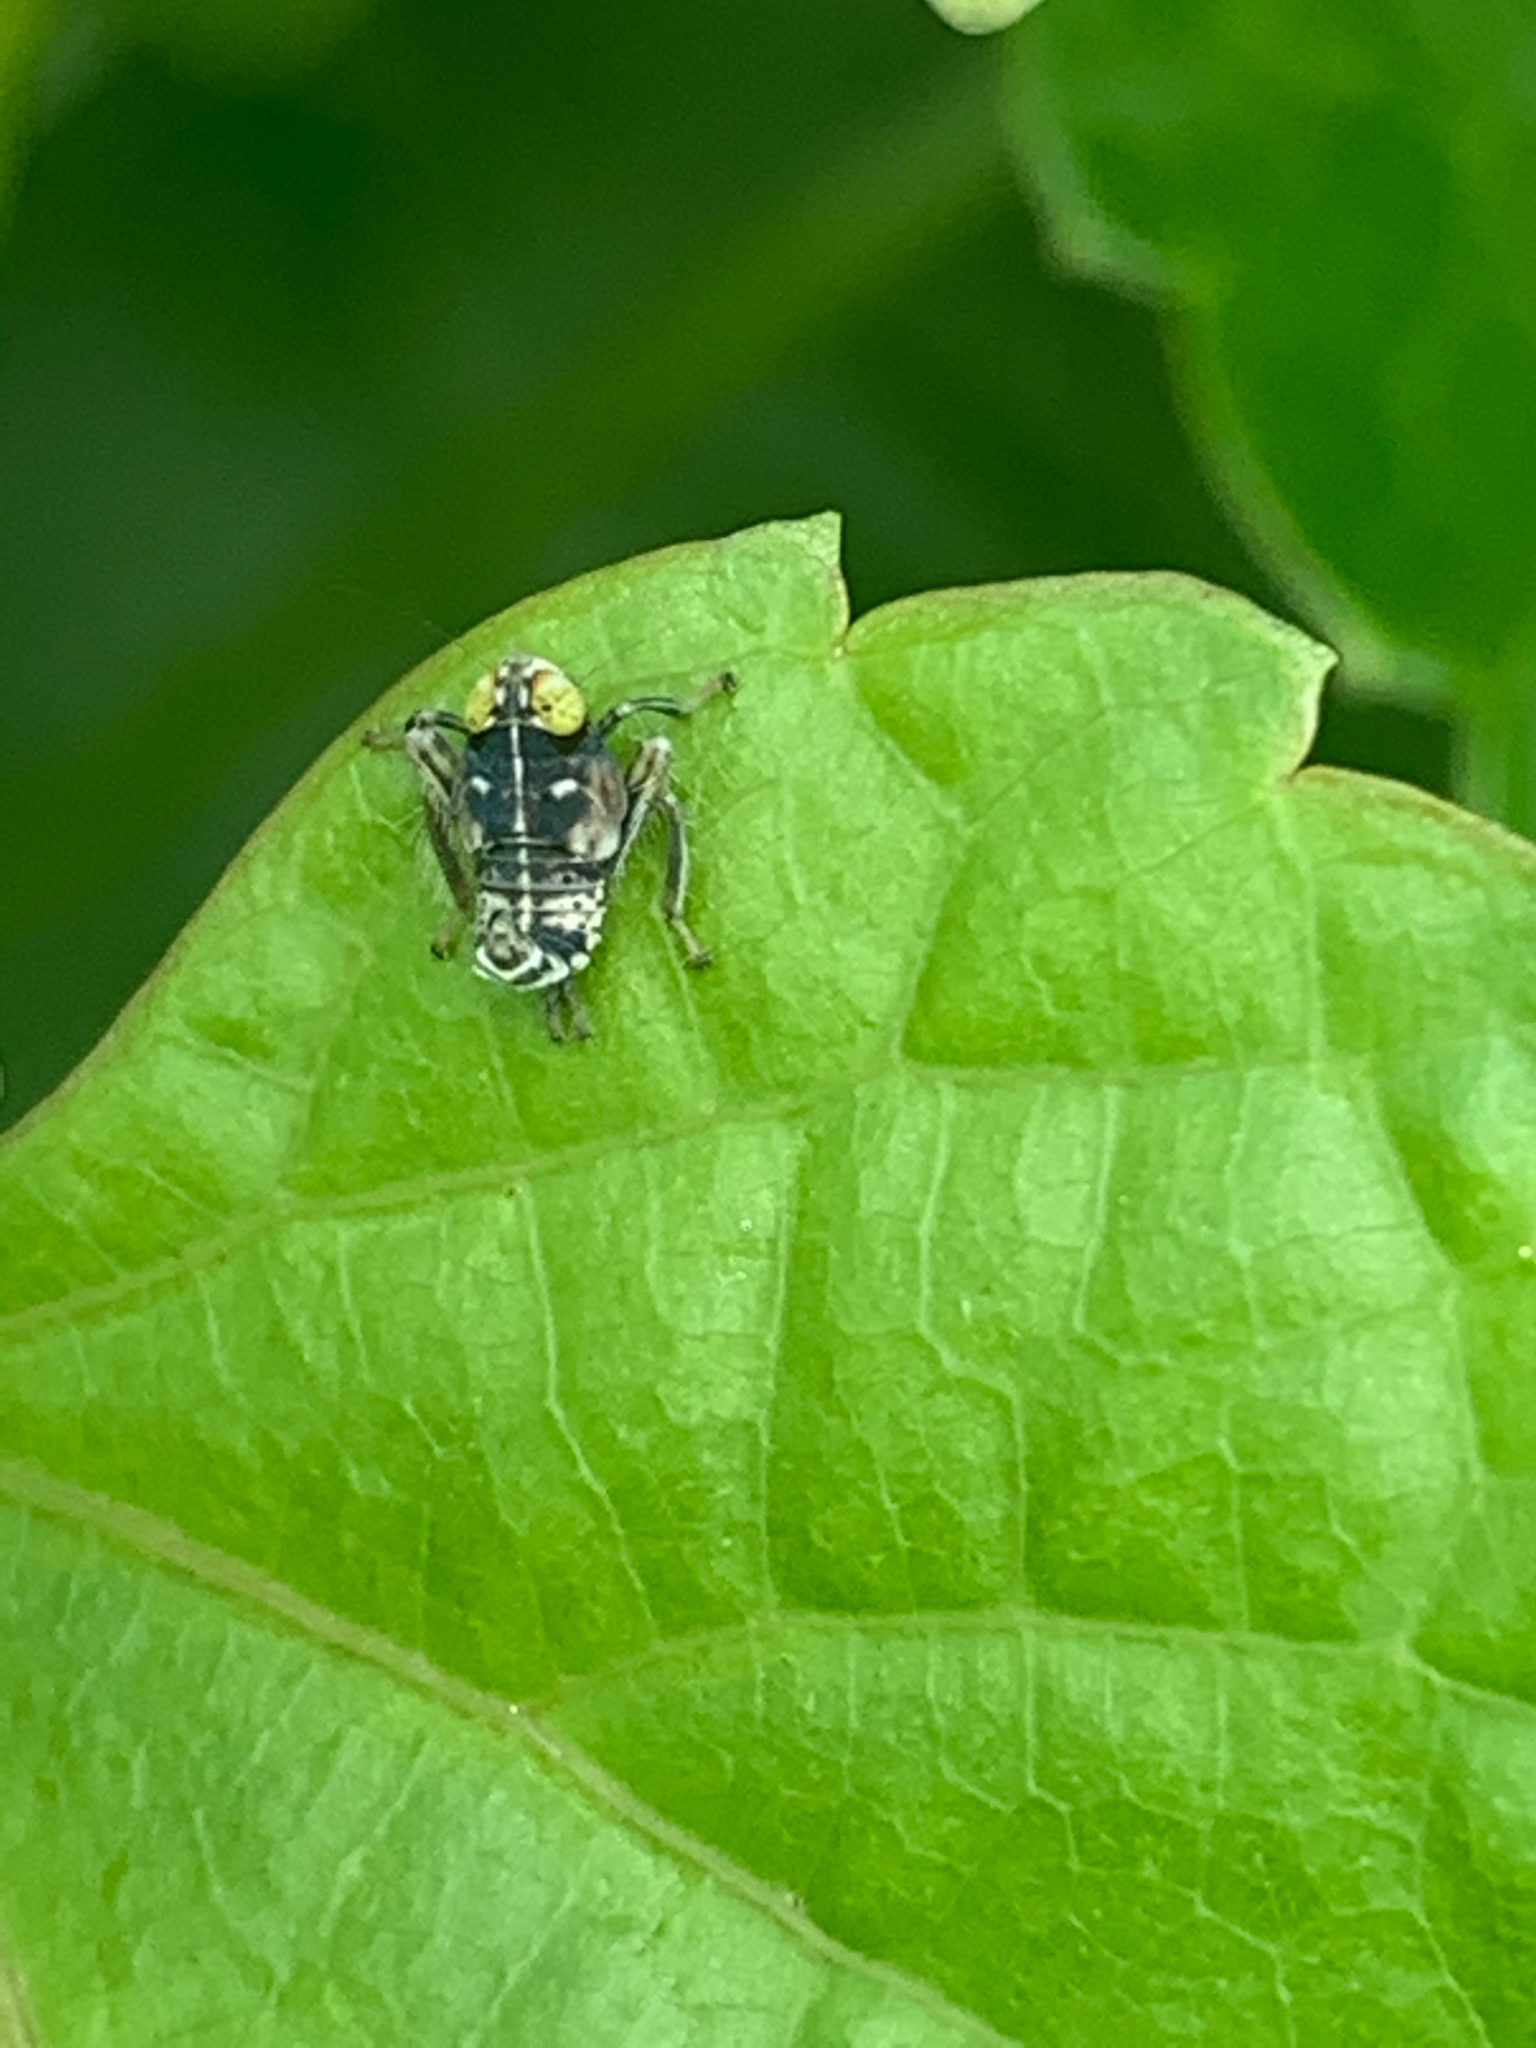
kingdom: Animalia
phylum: Arthropoda
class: Insecta
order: Hemiptera
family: Cicadellidae
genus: Jikradia
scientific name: Jikradia olitoria
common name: Coppery leafhopper
